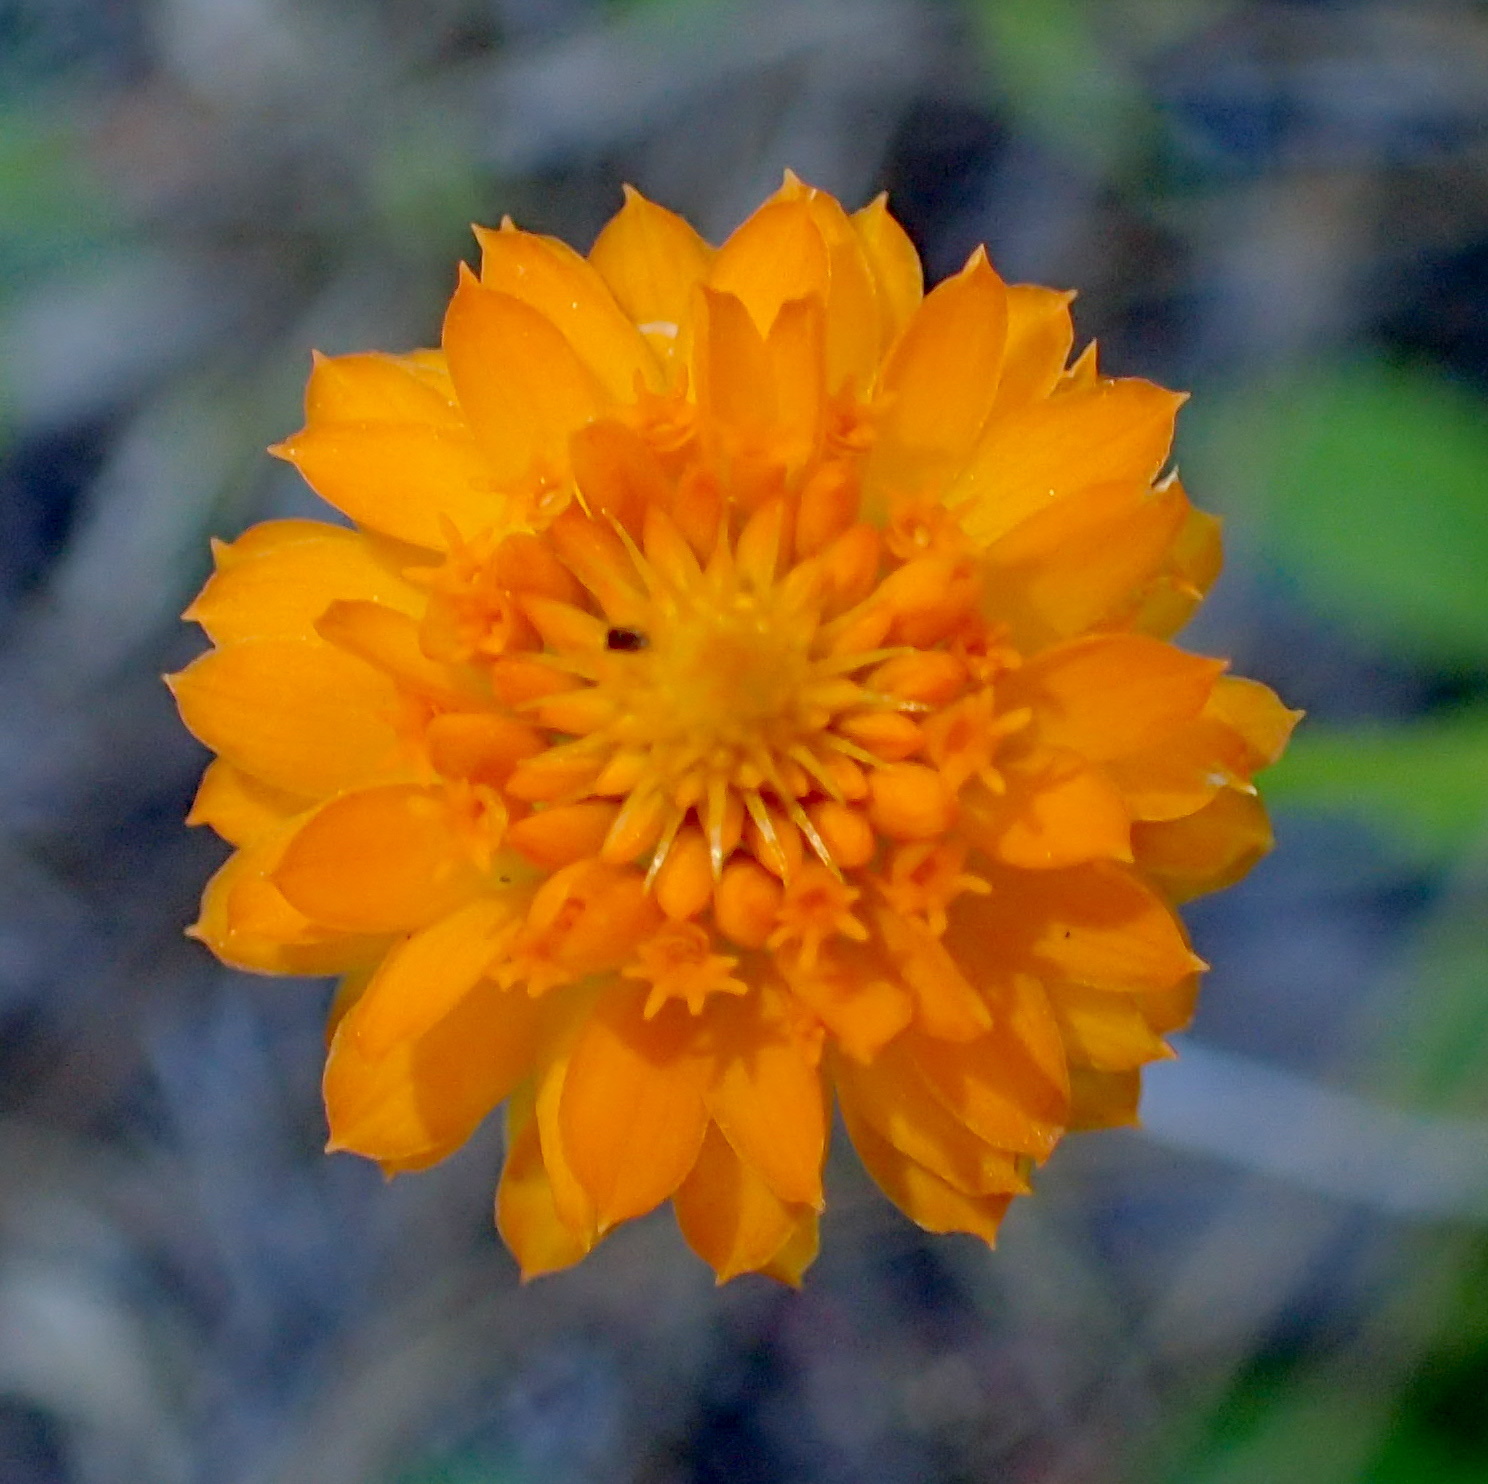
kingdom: Plantae
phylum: Tracheophyta
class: Magnoliopsida
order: Fabales
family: Polygalaceae
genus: Polygala
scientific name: Polygala lutea
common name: Orange milkwort
